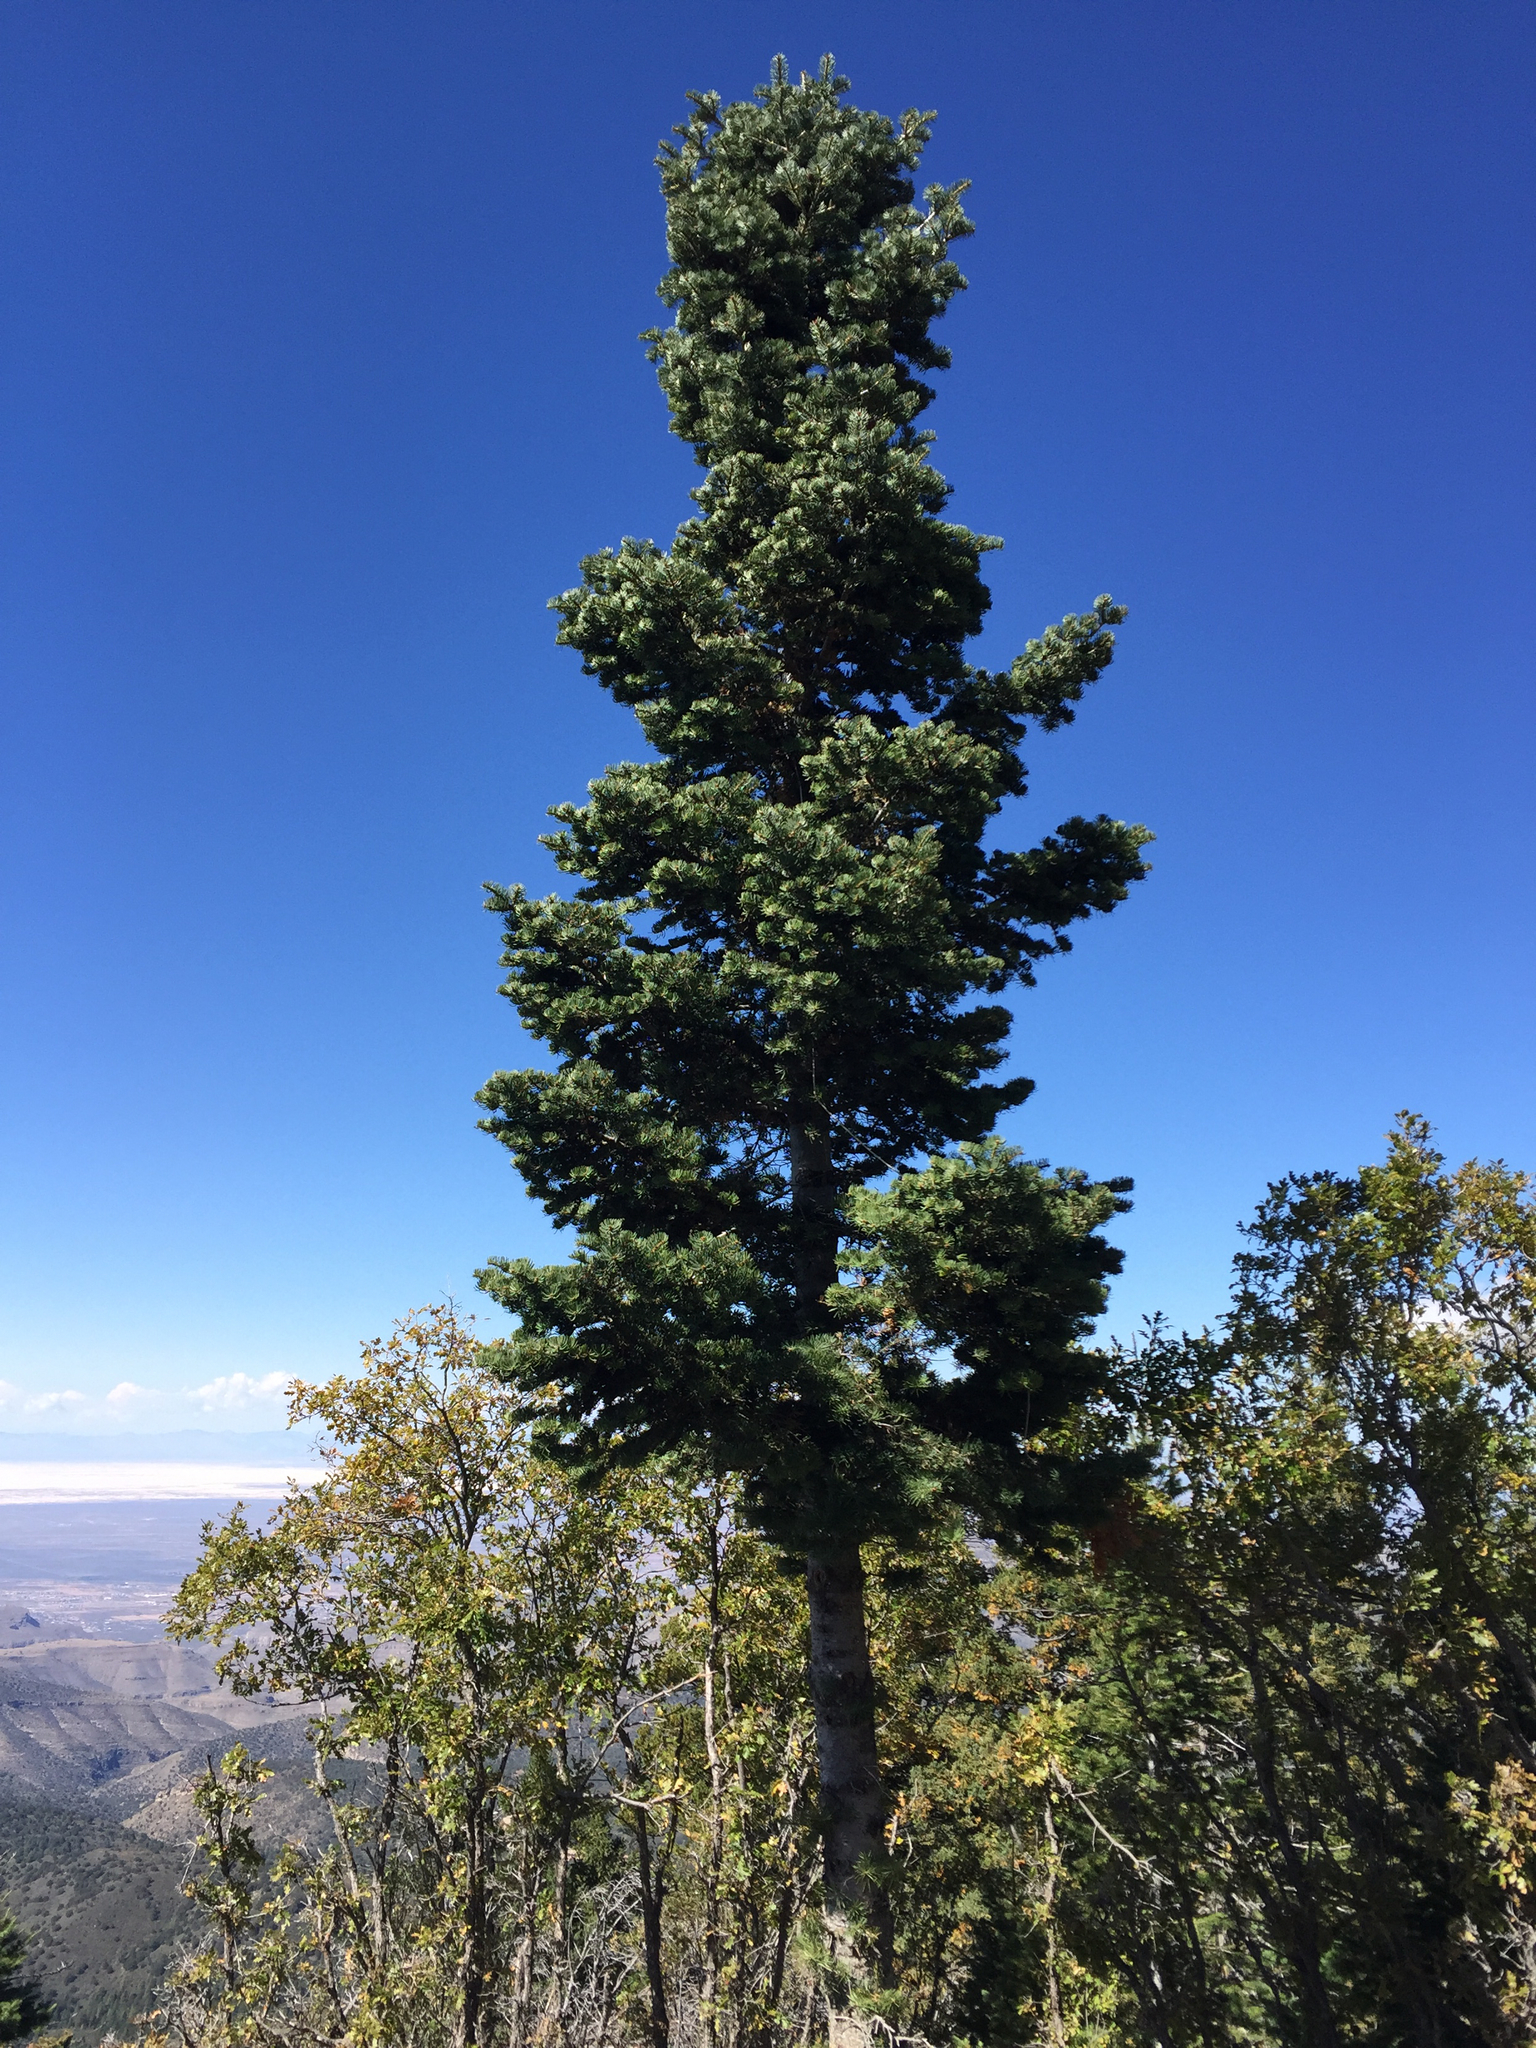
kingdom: Plantae
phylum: Tracheophyta
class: Pinopsida
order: Pinales
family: Pinaceae
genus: Abies
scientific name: Abies concolor
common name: Colorado fir
